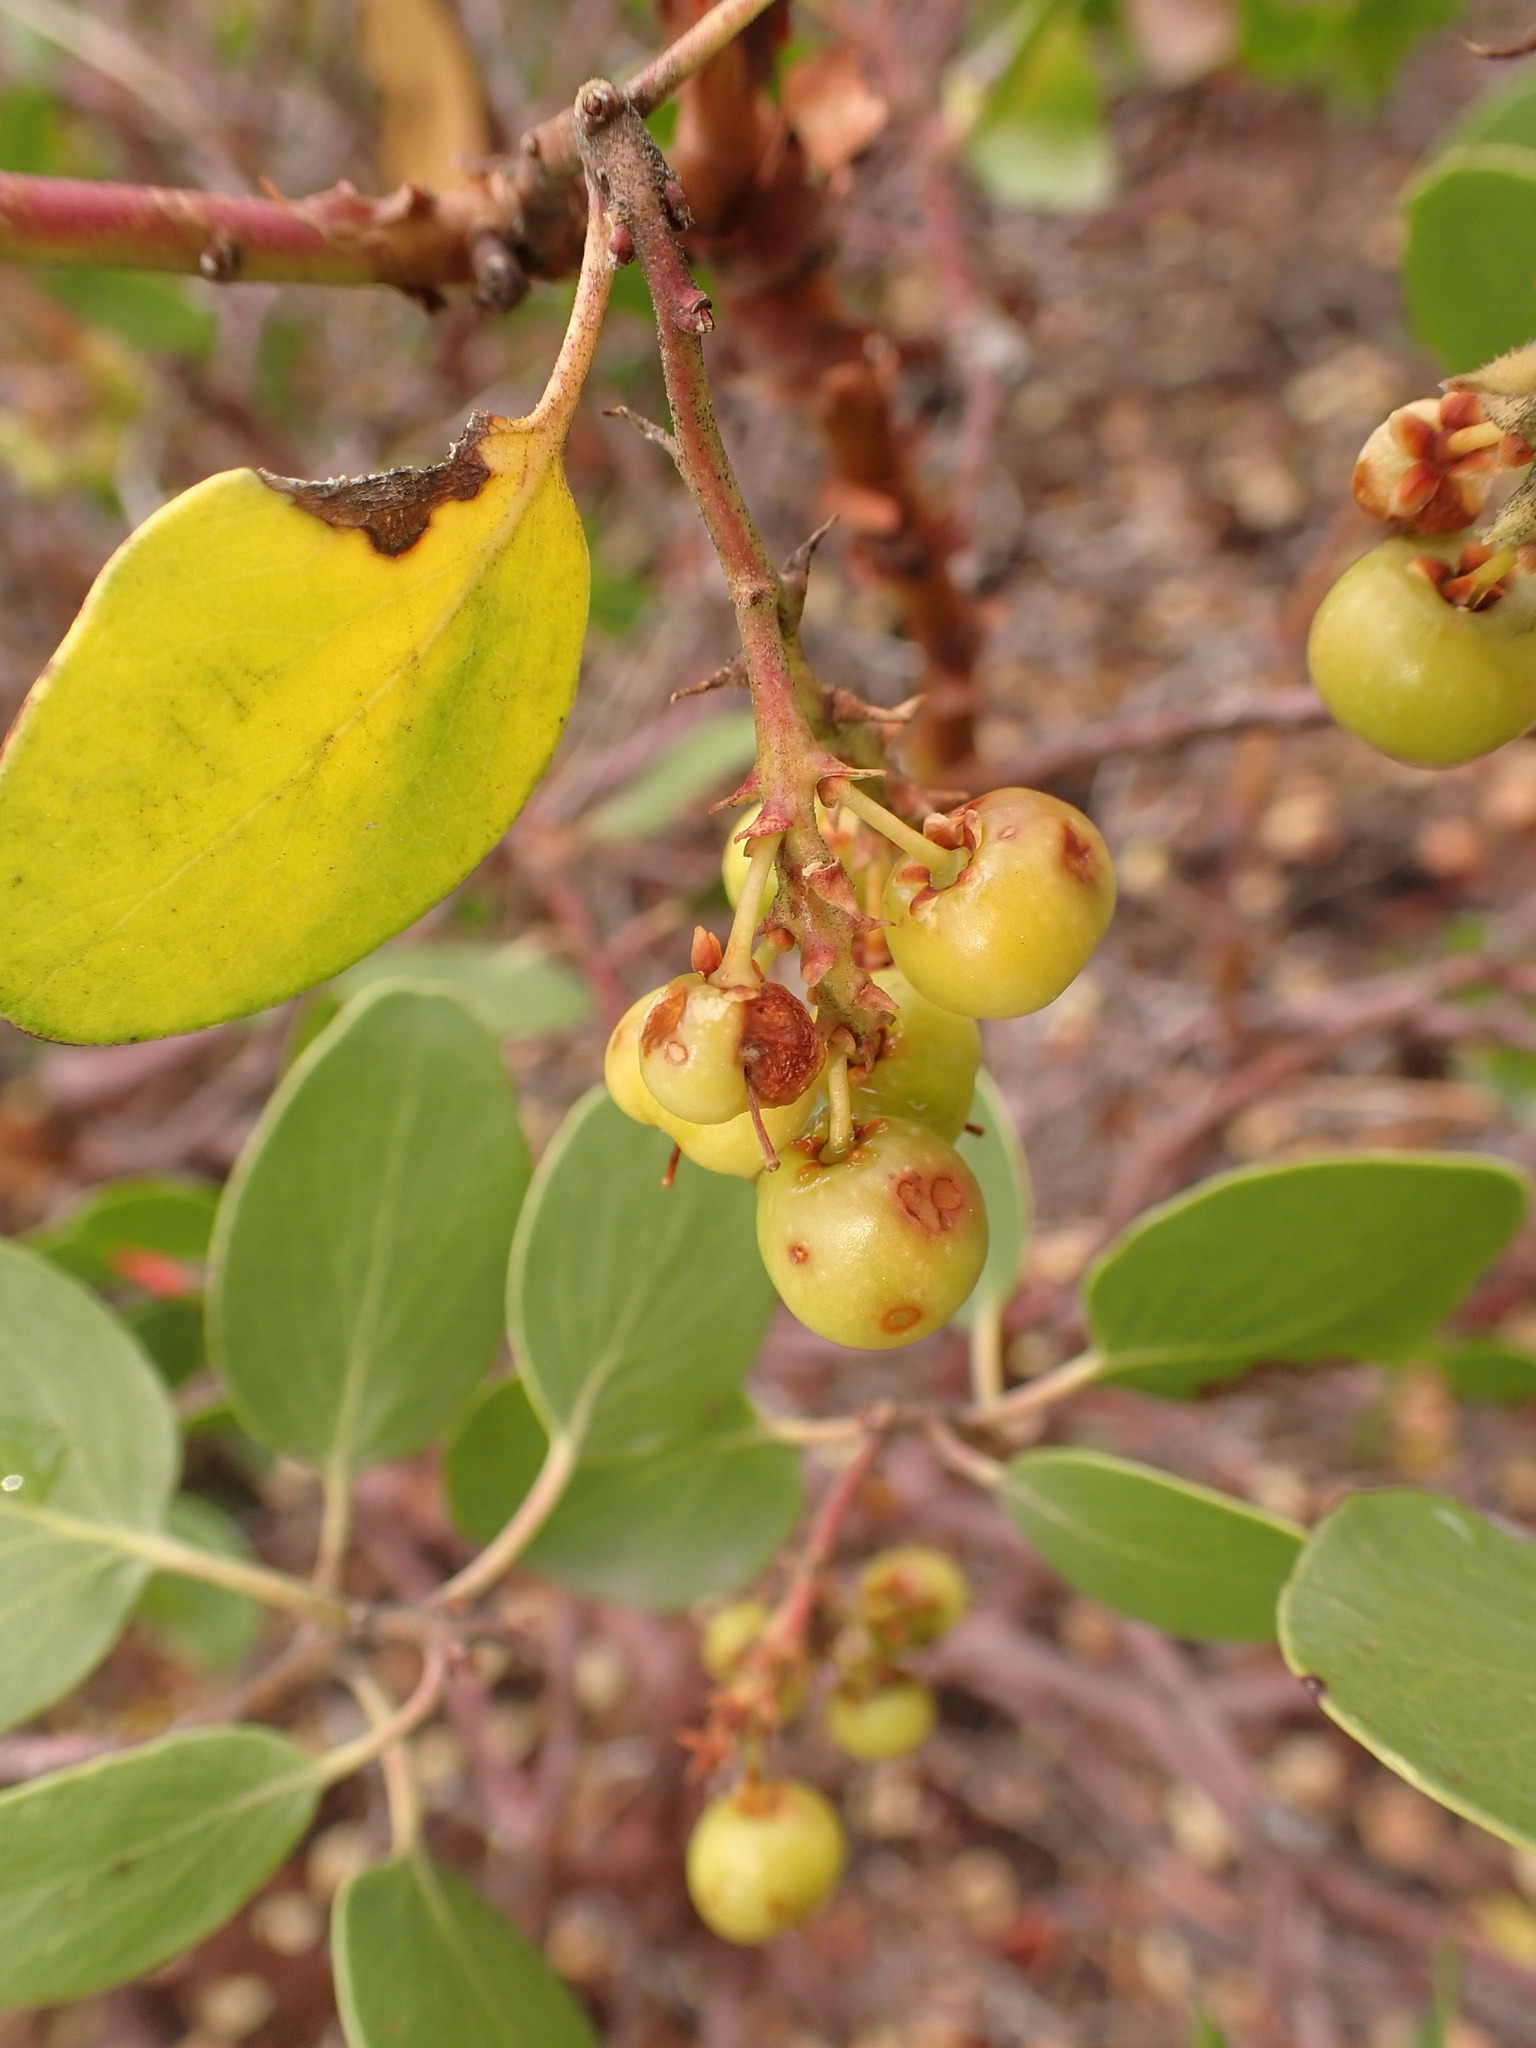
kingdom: Plantae
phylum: Tracheophyta
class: Magnoliopsida
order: Ericales
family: Ericaceae
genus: Arctostaphylos
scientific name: Arctostaphylos patula
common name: Green-leaf manzanita
